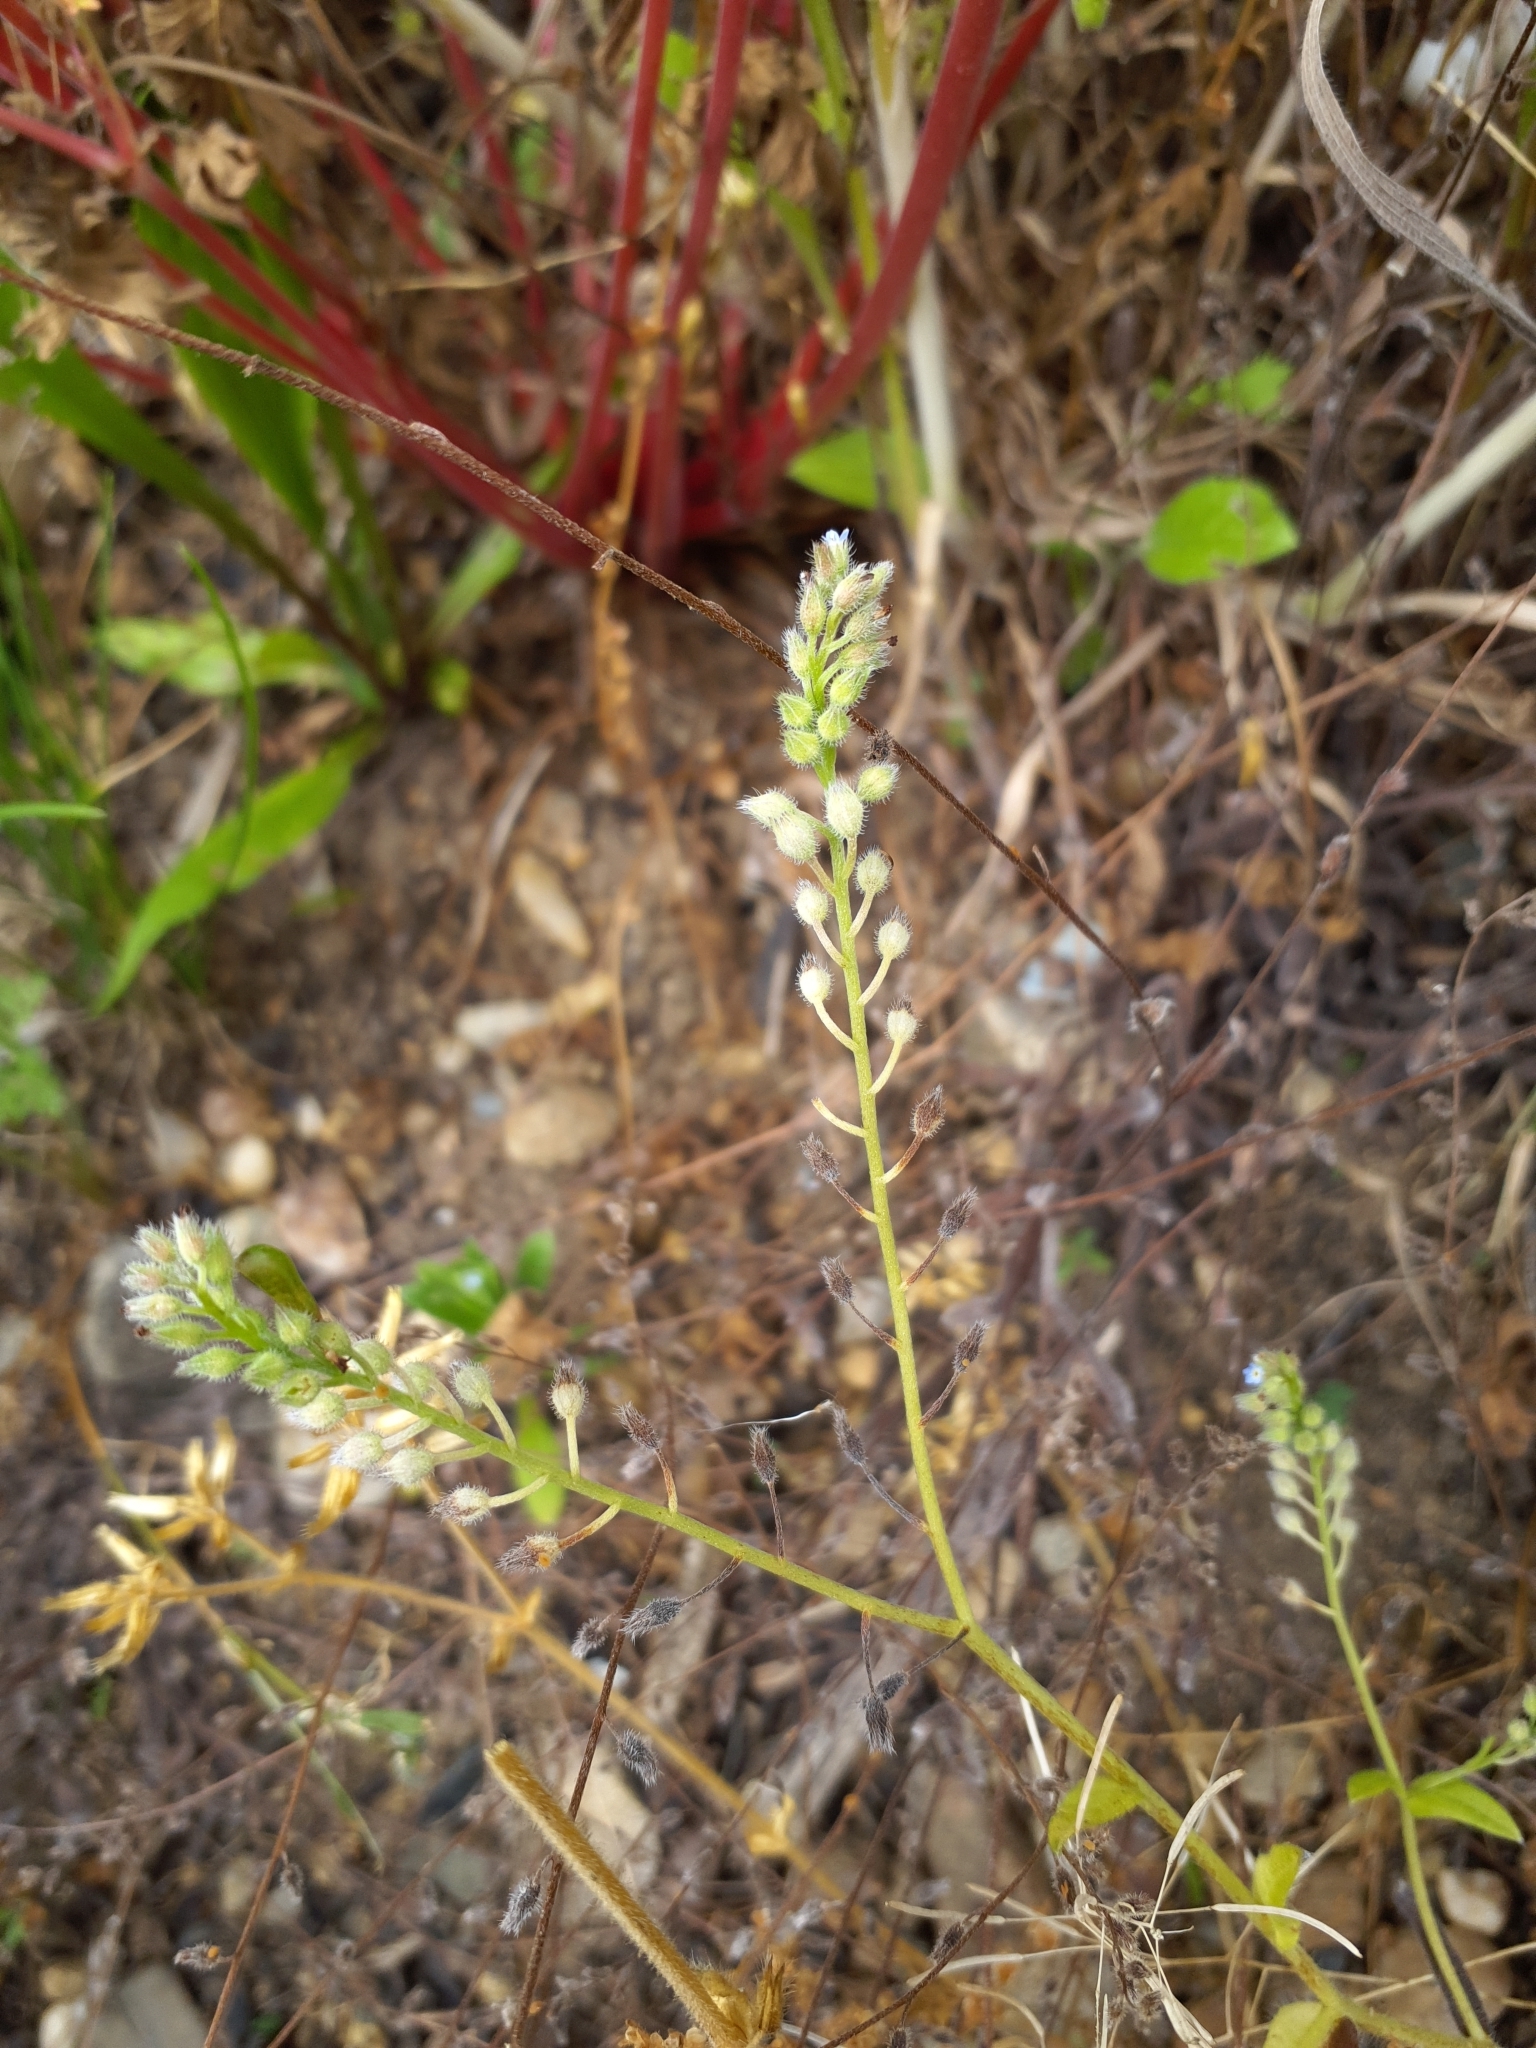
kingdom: Plantae
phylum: Tracheophyta
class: Magnoliopsida
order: Boraginales
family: Boraginaceae
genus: Myosotis
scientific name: Myosotis arvensis
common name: Field forget-me-not
